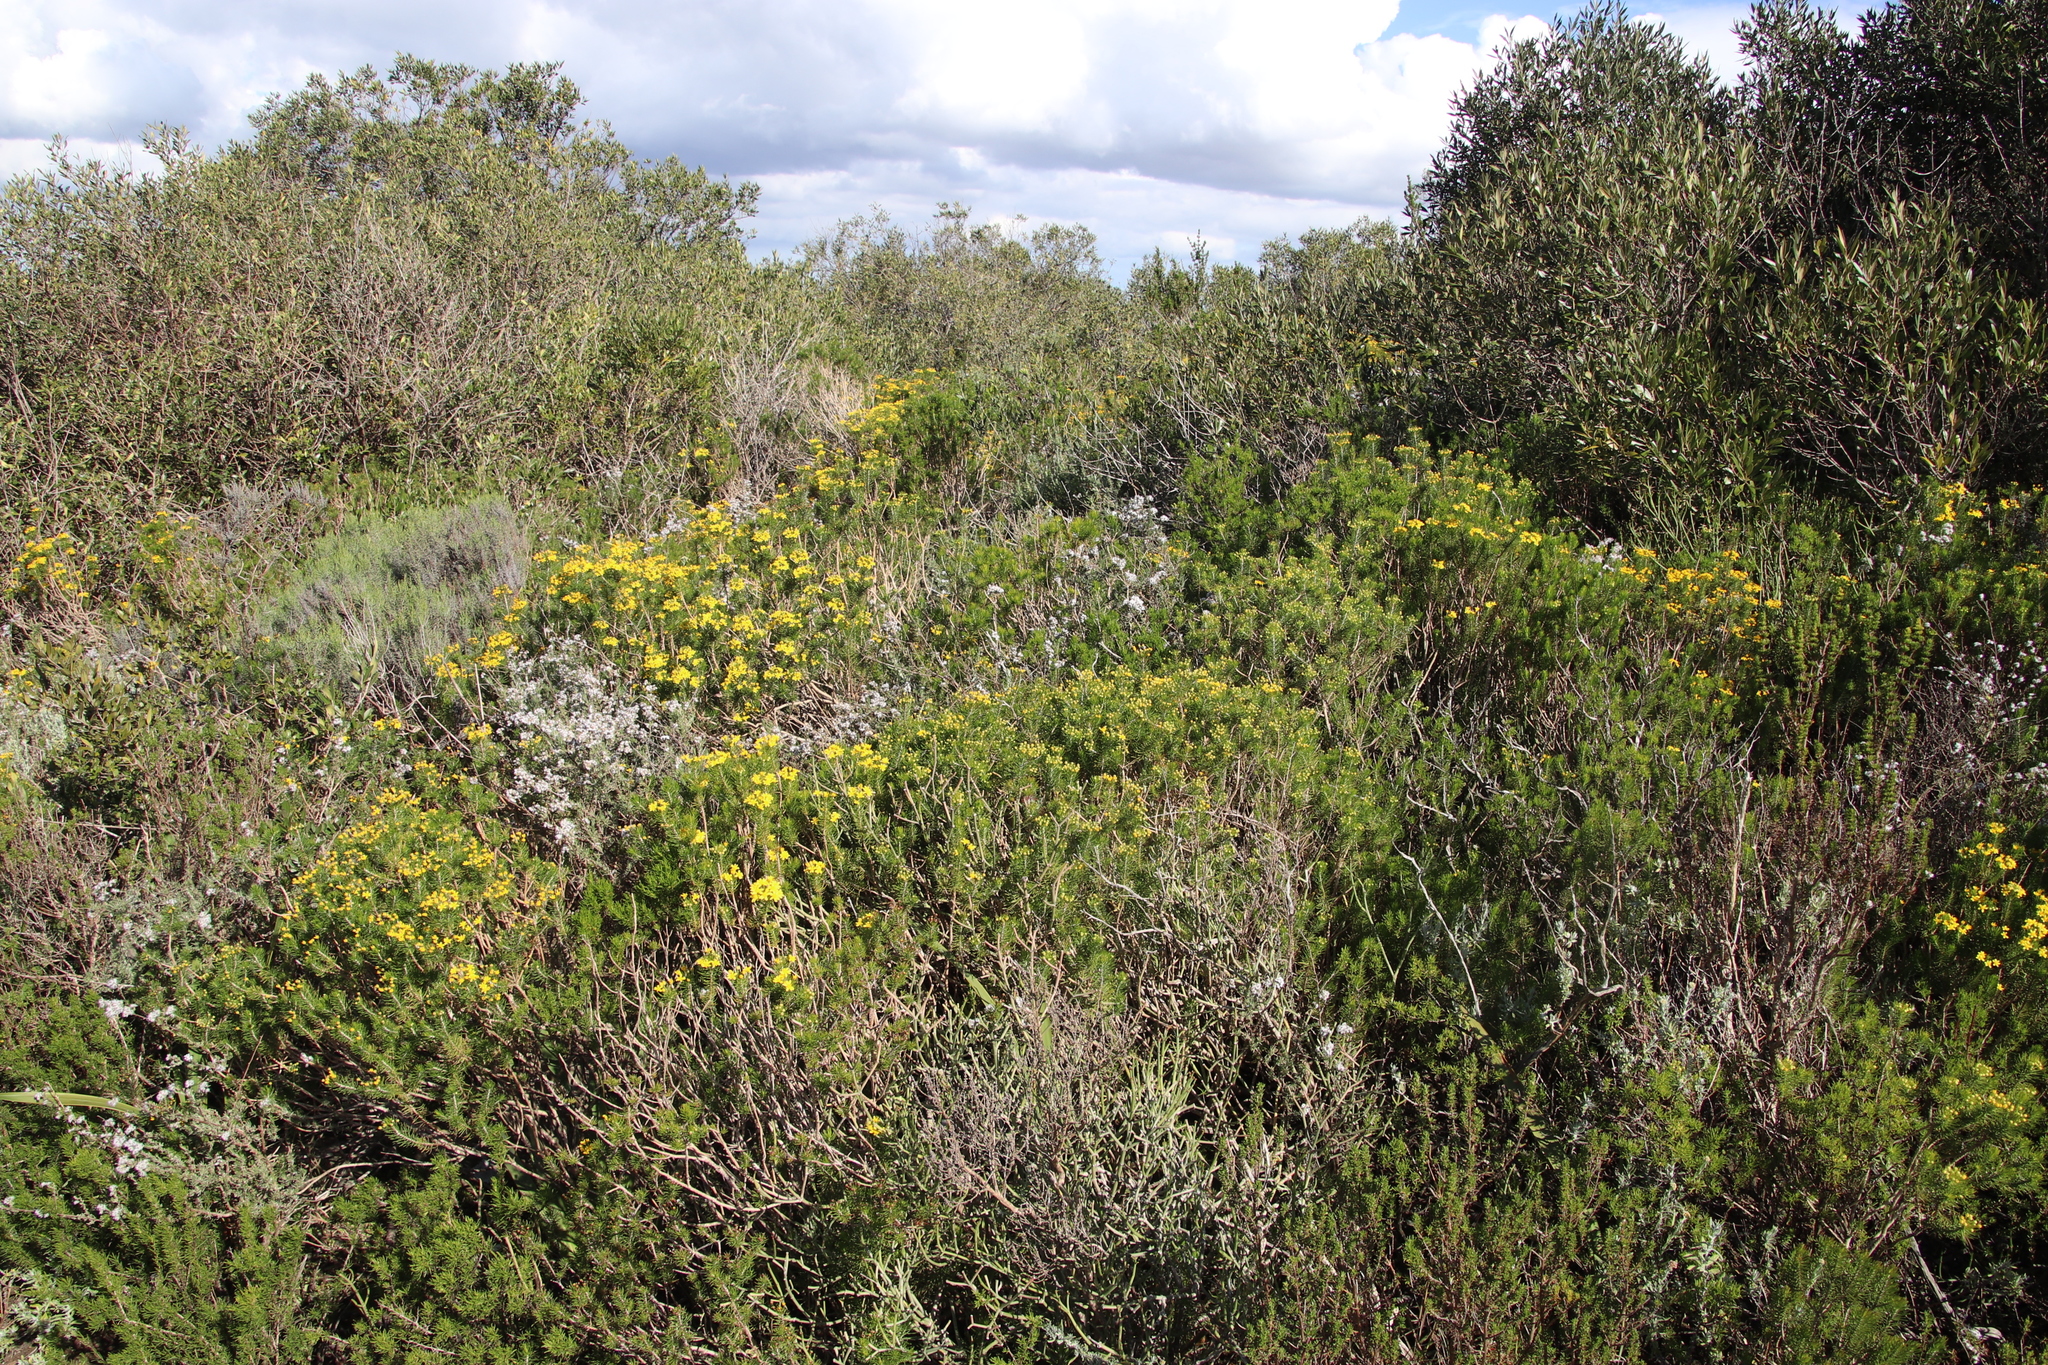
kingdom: Plantae
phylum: Tracheophyta
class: Magnoliopsida
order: Asterales
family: Asteraceae
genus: Euryops
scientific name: Euryops linifolius
